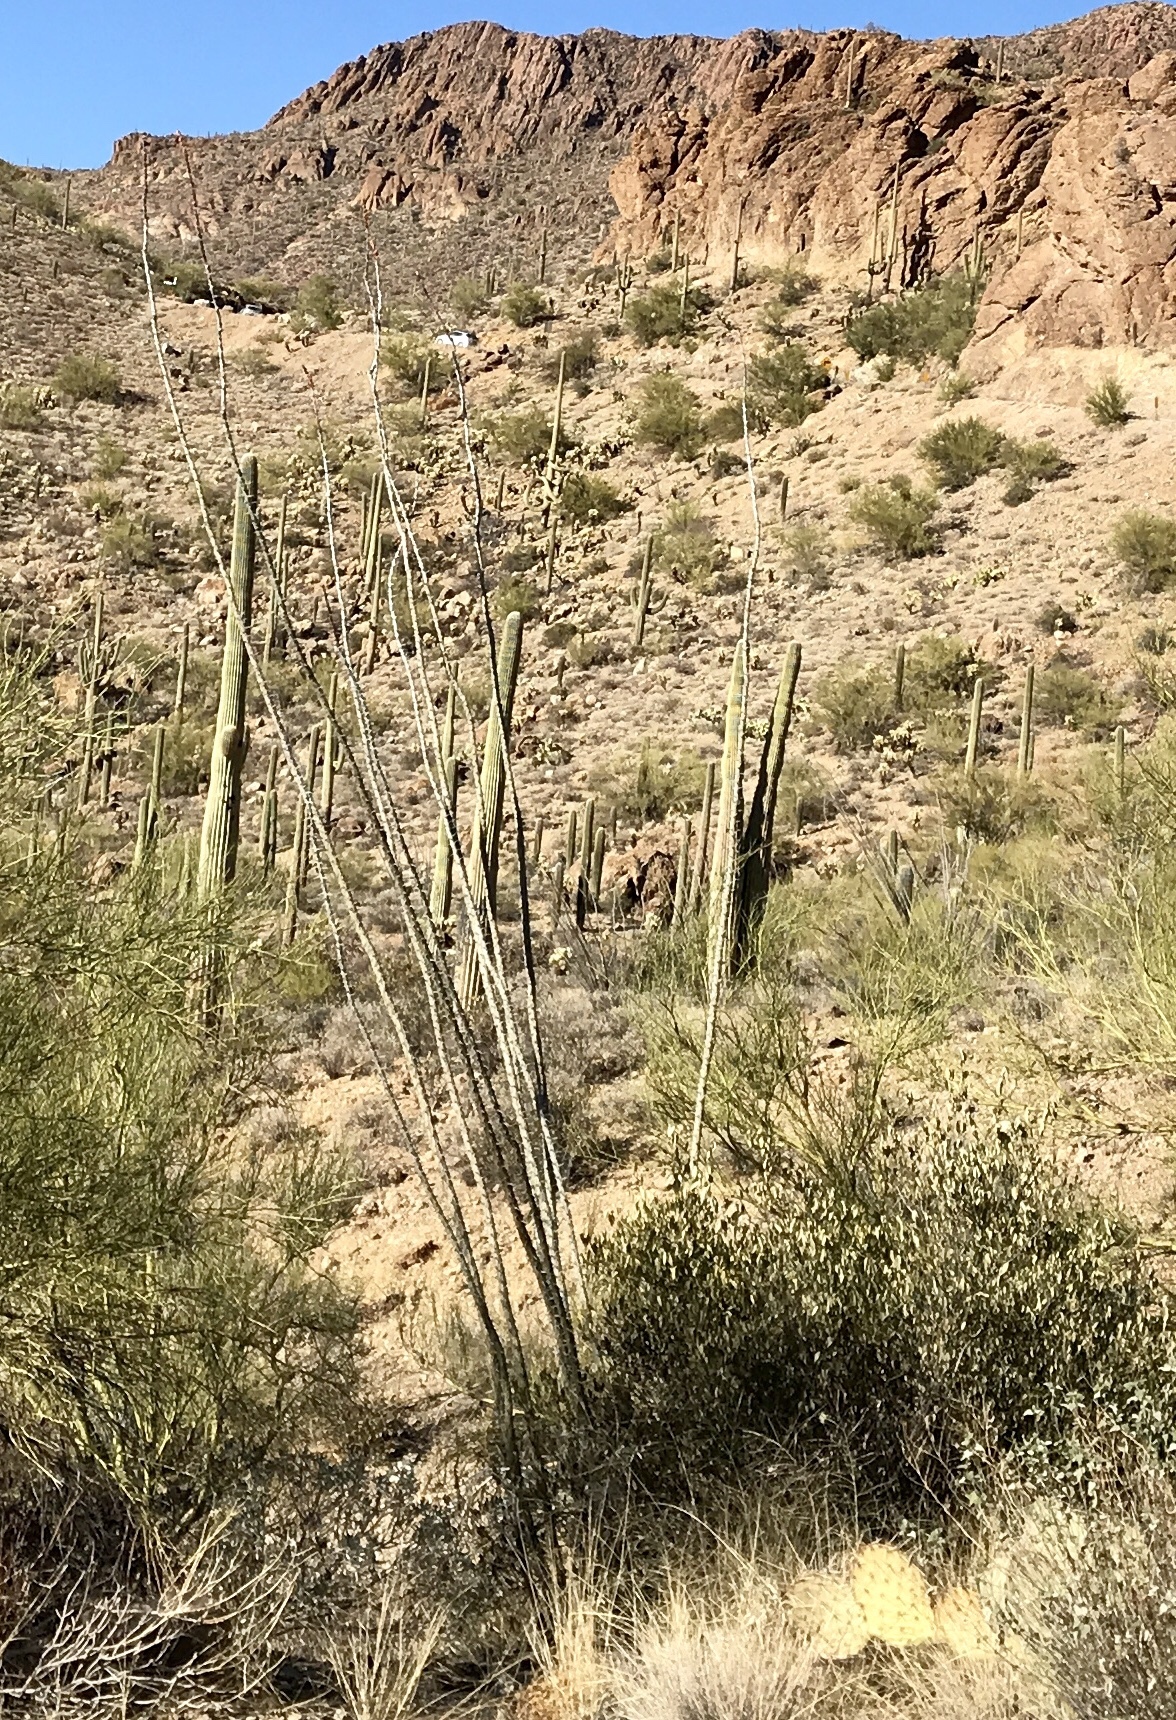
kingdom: Plantae
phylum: Tracheophyta
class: Magnoliopsida
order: Ericales
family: Fouquieriaceae
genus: Fouquieria
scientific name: Fouquieria splendens
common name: Vine-cactus
